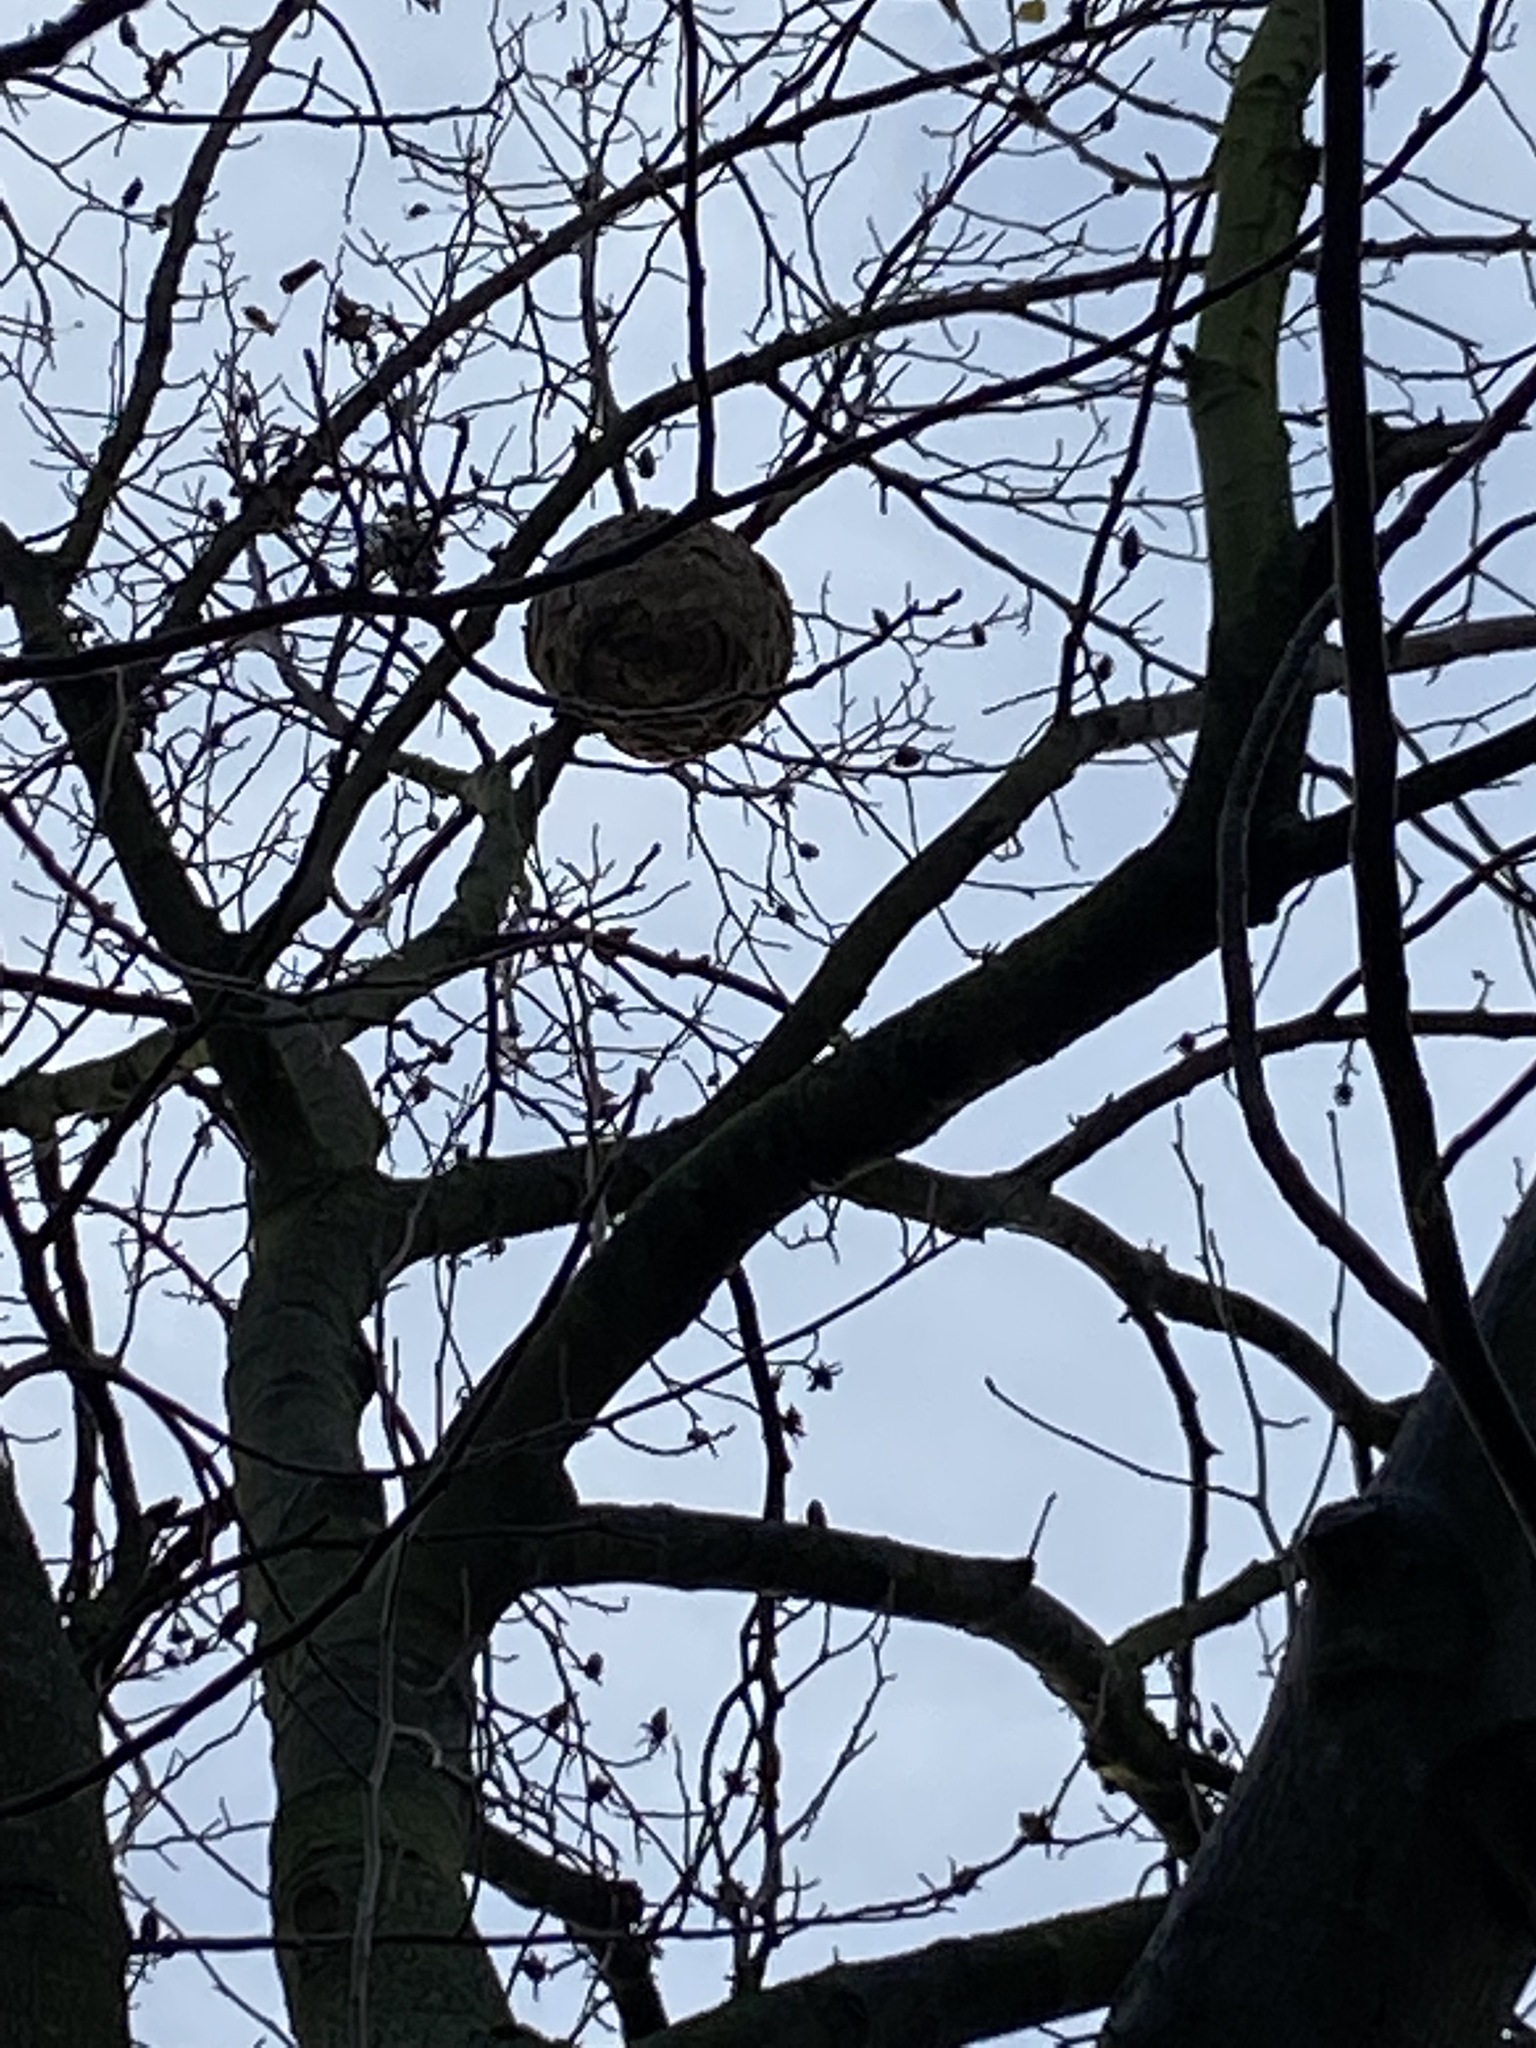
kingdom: Animalia
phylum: Arthropoda
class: Insecta
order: Hymenoptera
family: Vespidae
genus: Vespa
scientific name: Vespa velutina
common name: Asian hornet
